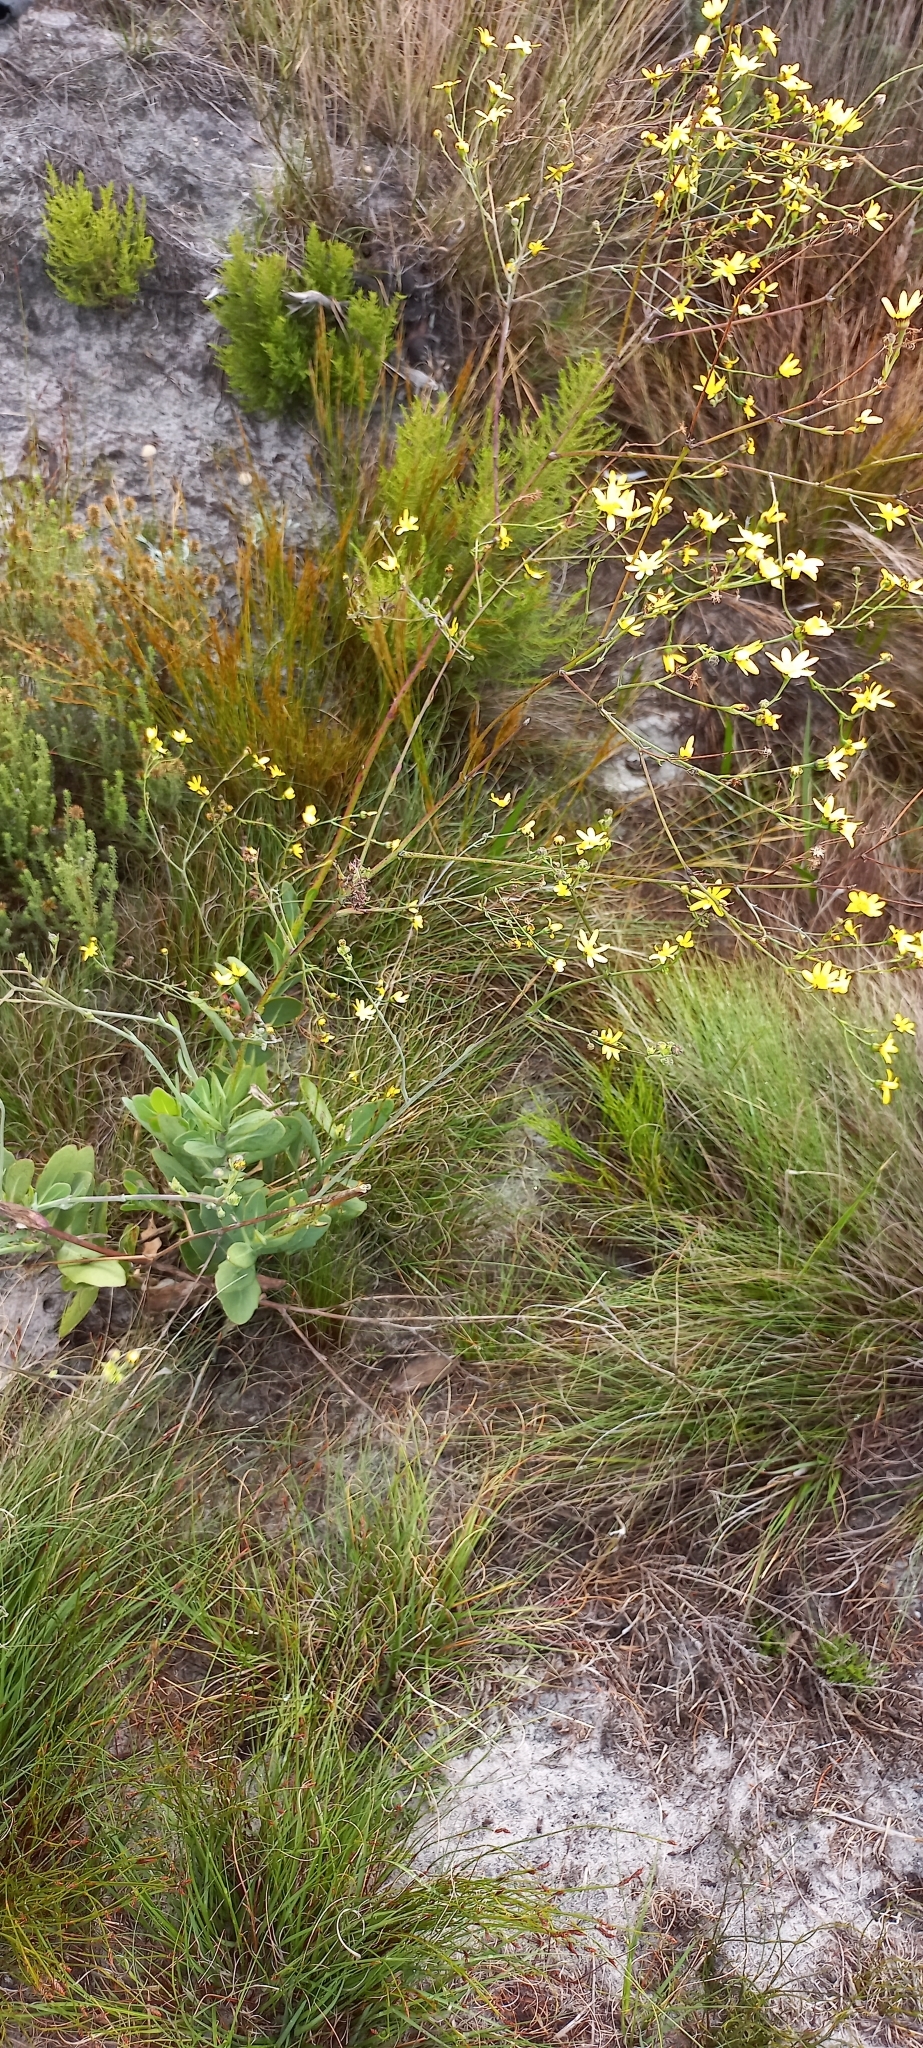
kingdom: Plantae
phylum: Tracheophyta
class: Magnoliopsida
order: Asterales
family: Asteraceae
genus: Othonna
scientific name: Othonna quinquedentata
